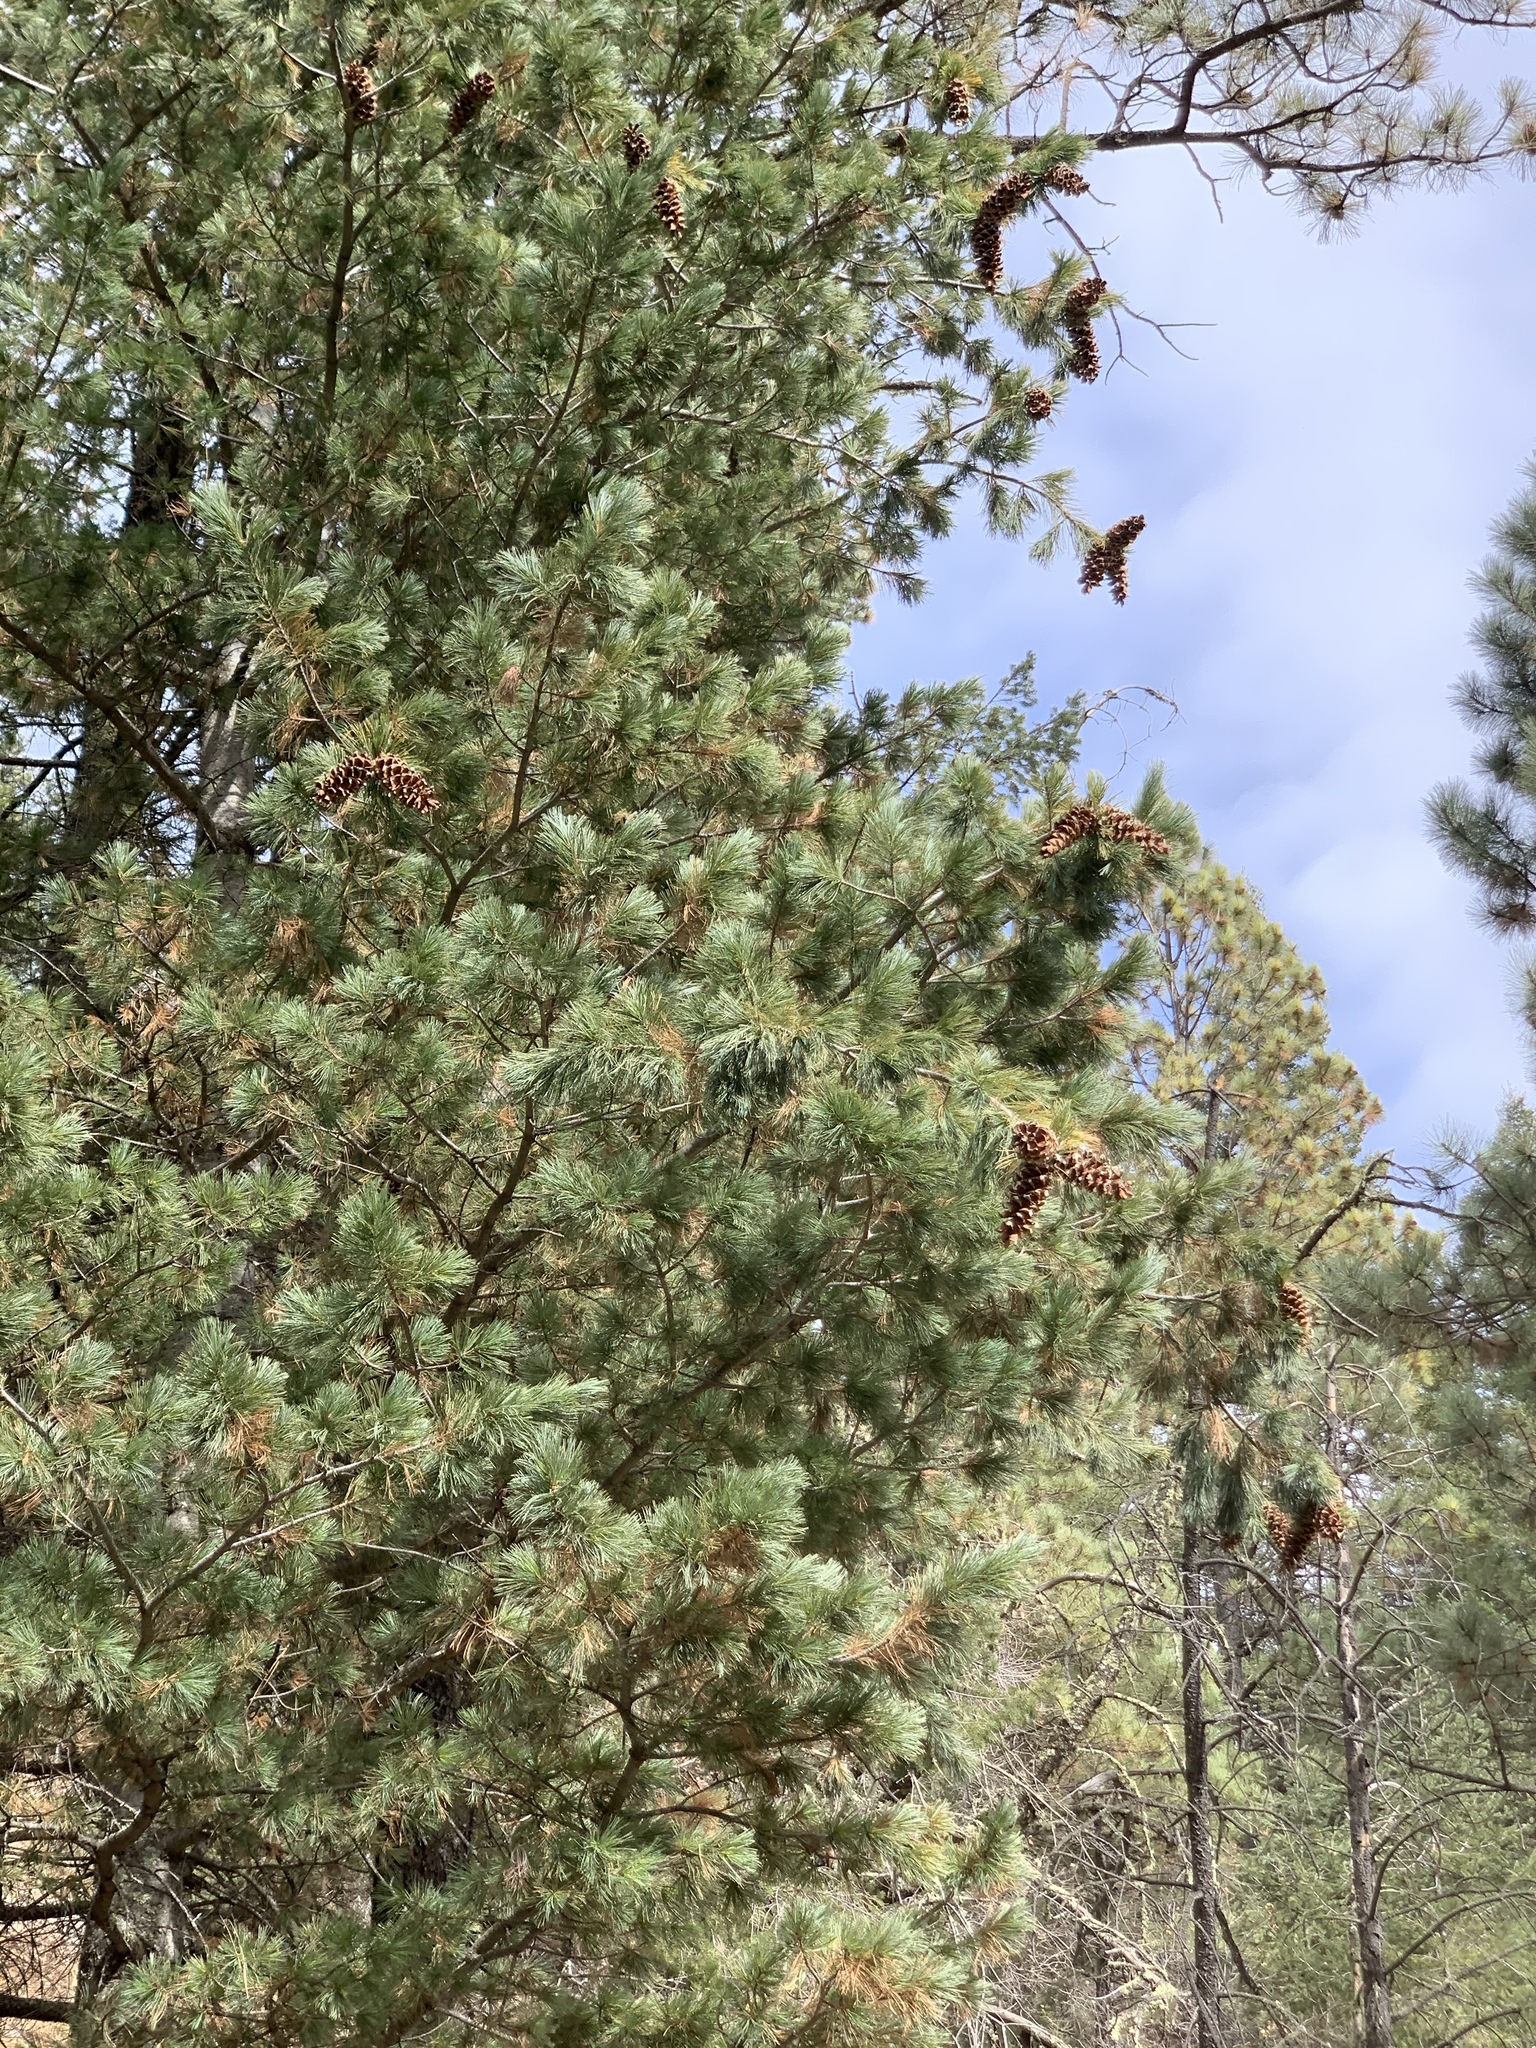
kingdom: Plantae
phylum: Tracheophyta
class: Pinopsida
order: Pinales
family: Pinaceae
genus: Pinus
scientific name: Pinus strobiformis
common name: Southwestern white pine
